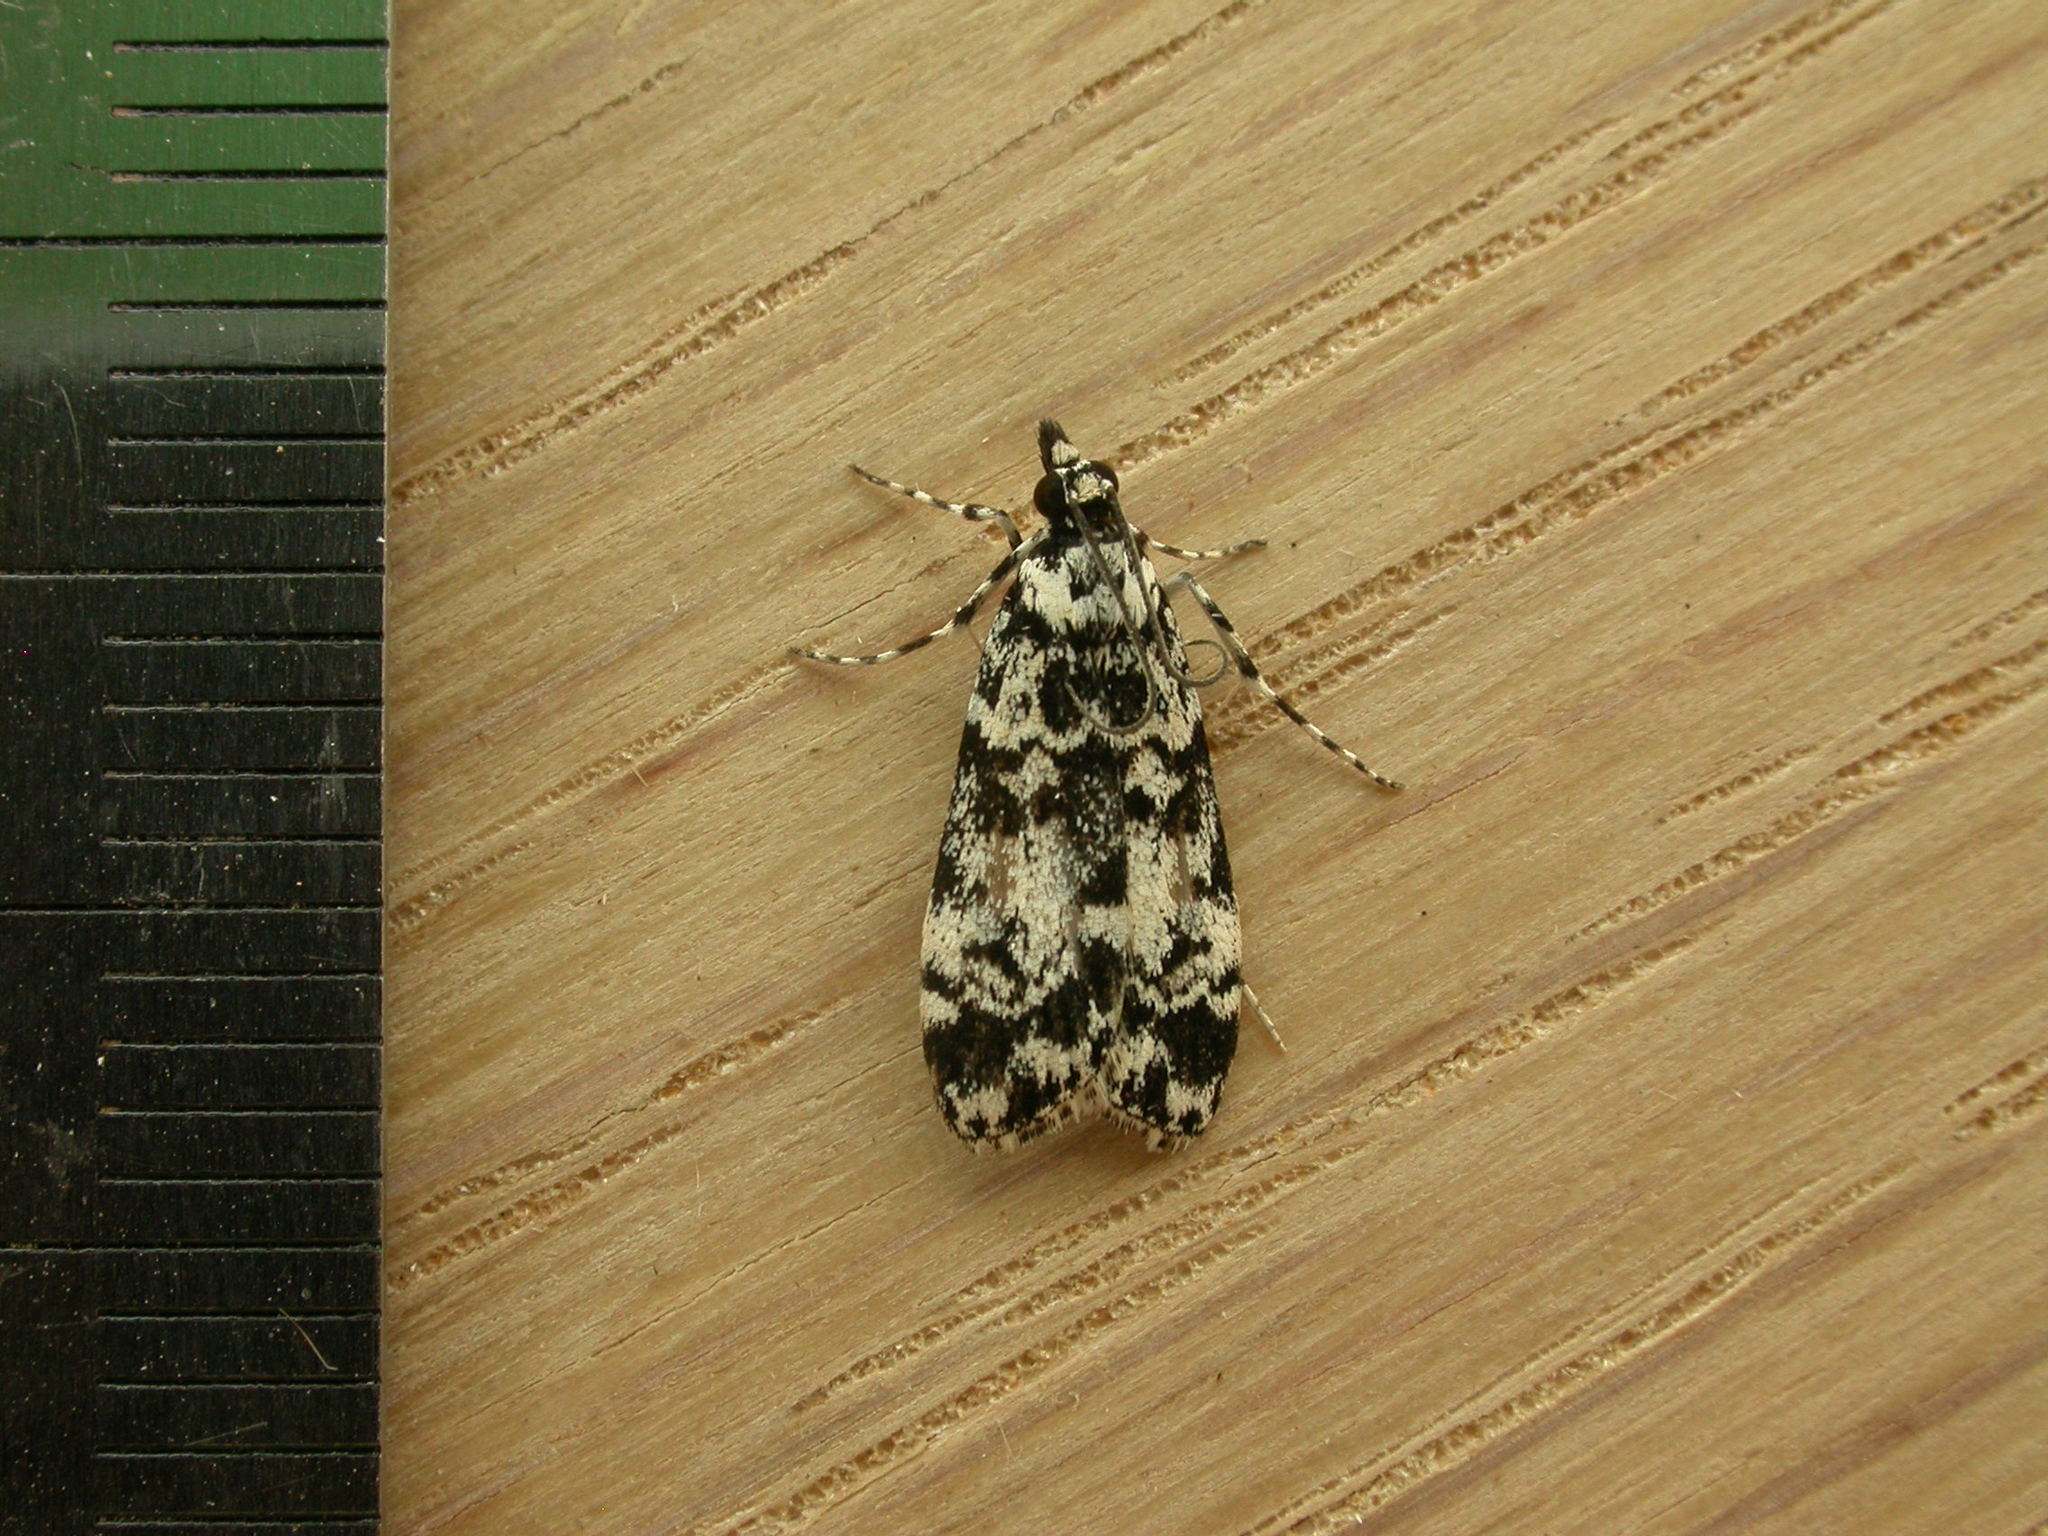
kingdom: Animalia
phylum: Arthropoda
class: Insecta
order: Lepidoptera
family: Crambidae
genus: Scoparia
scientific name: Scoparia exhibitalis
